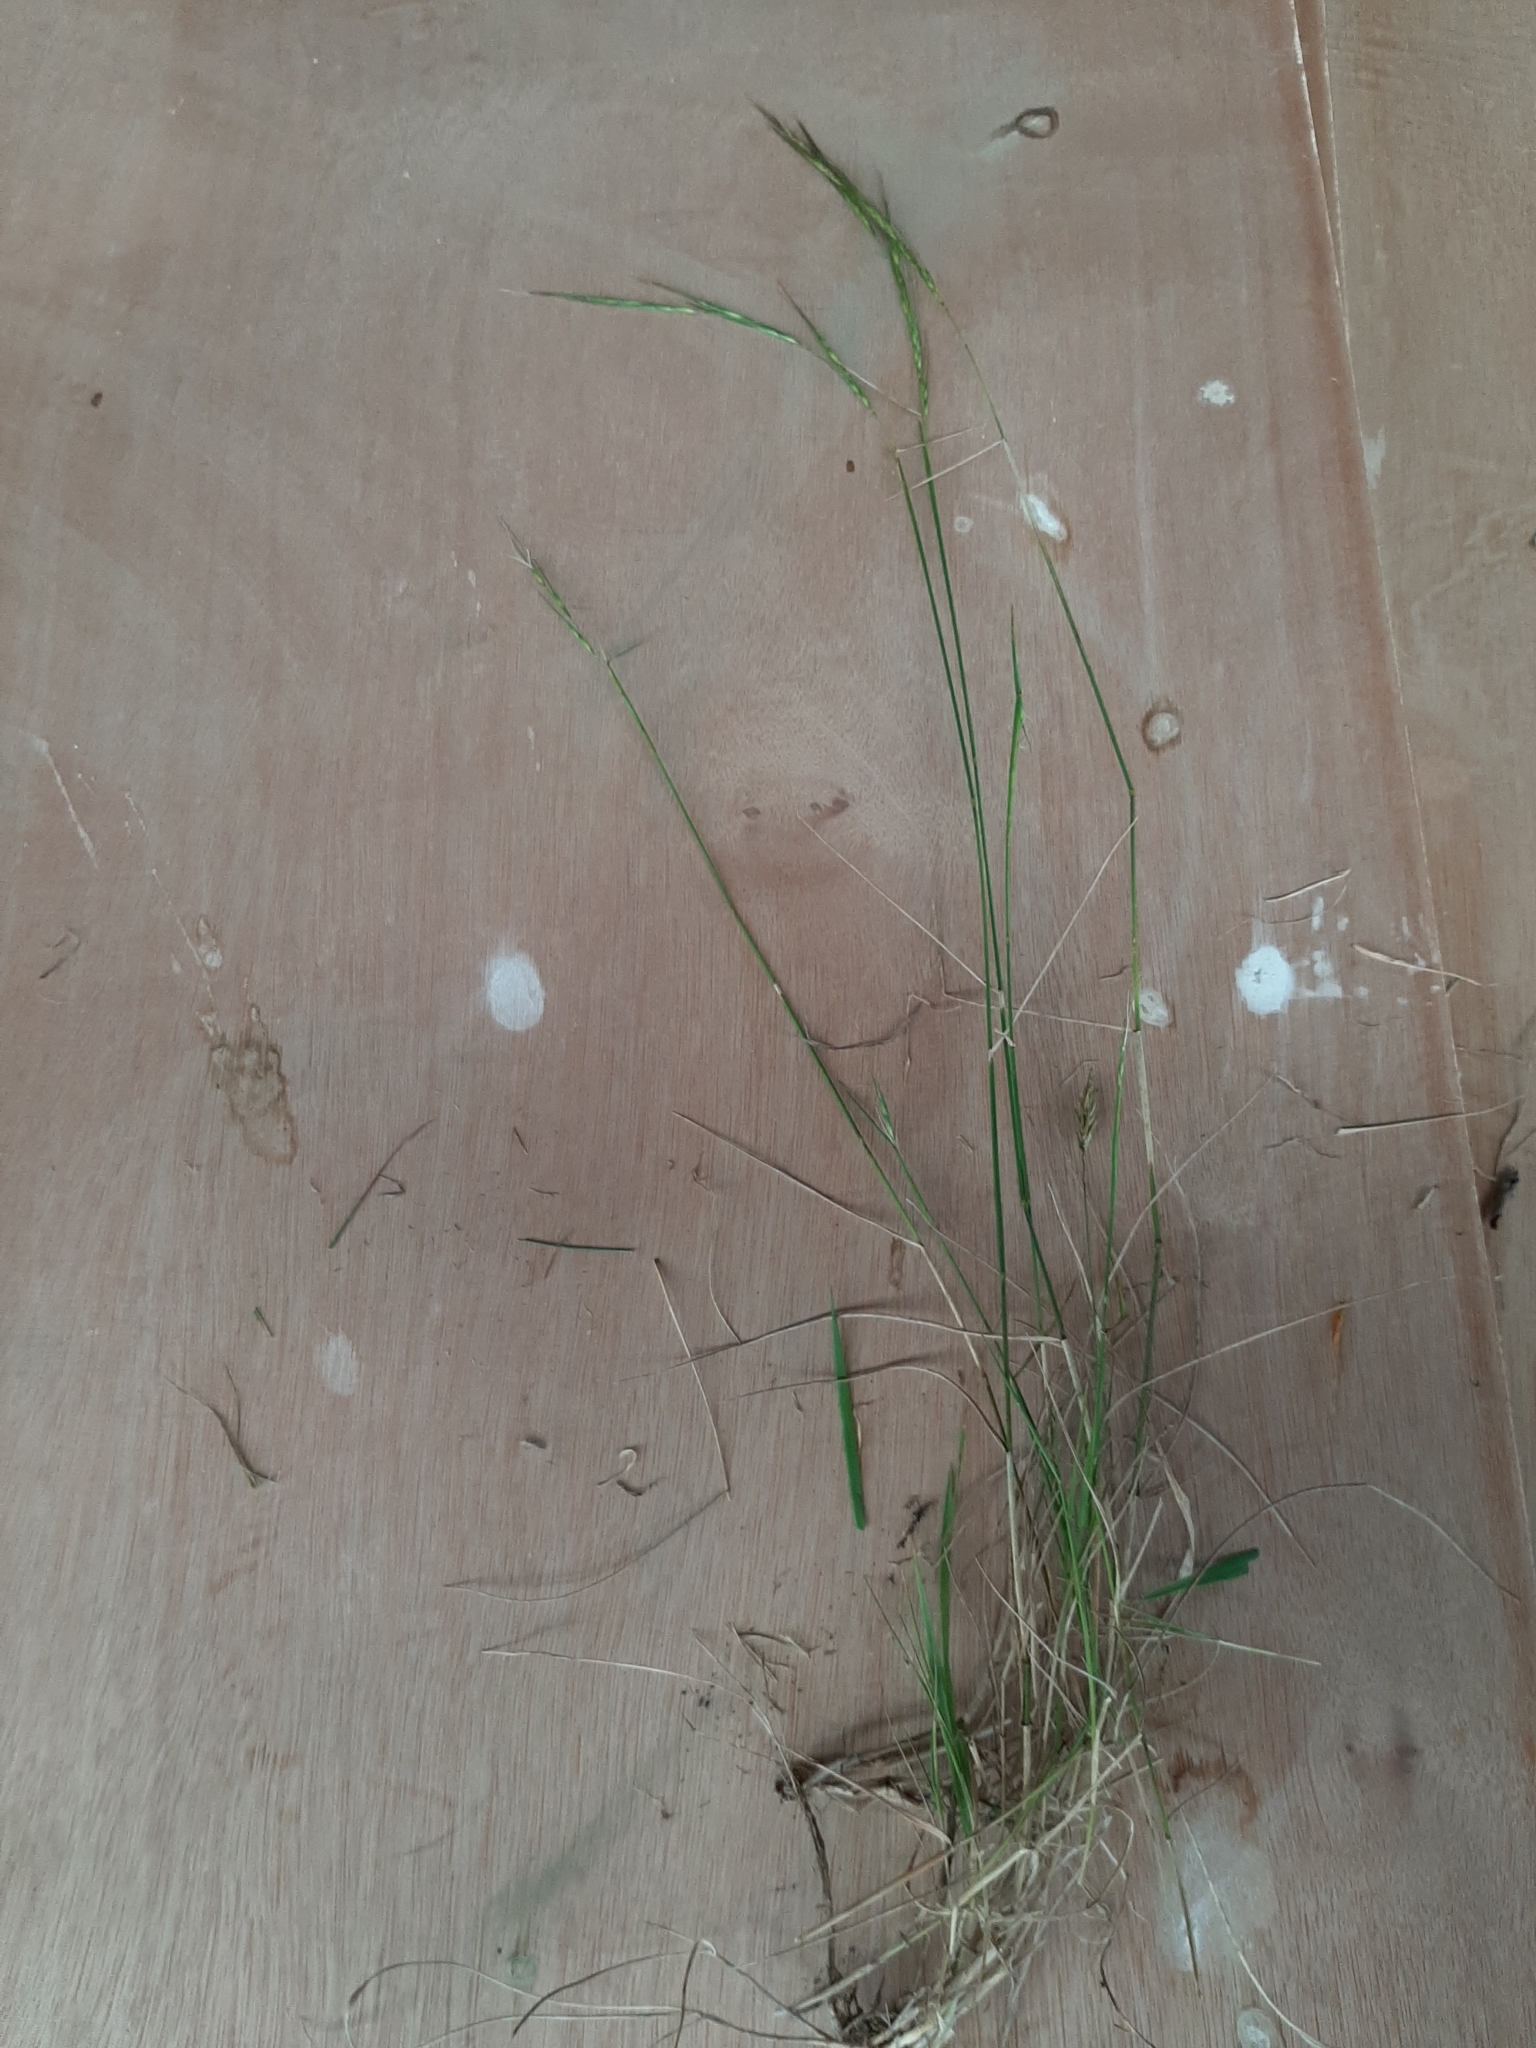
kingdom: Plantae
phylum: Tracheophyta
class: Liliopsida
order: Poales
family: Poaceae
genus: Anthosachne
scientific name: Anthosachne scabra
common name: Common wheatgrass
